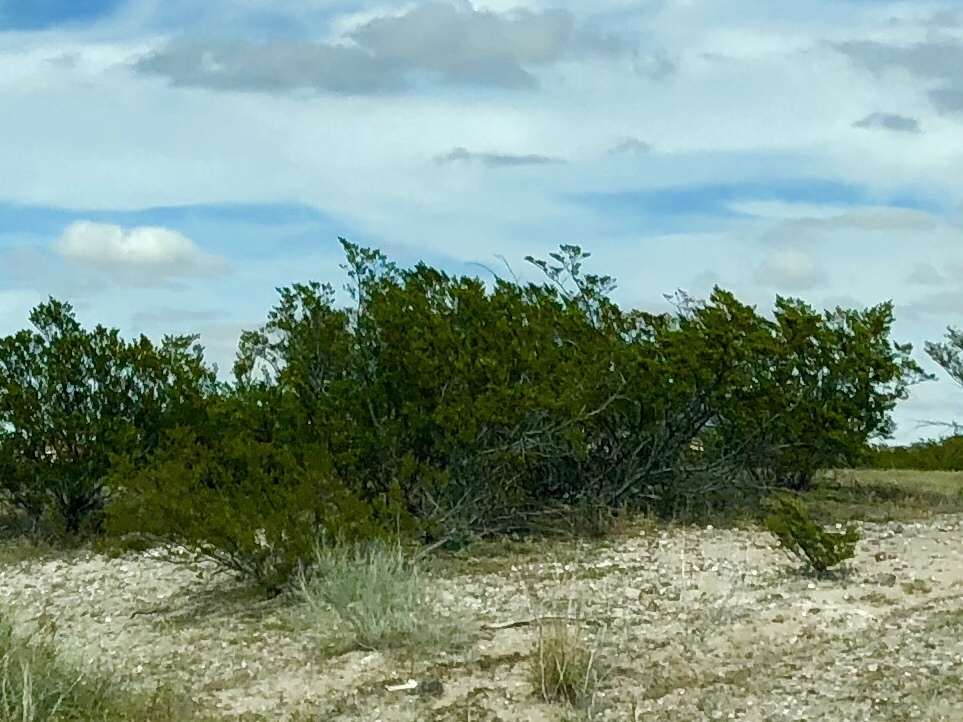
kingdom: Plantae
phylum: Tracheophyta
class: Magnoliopsida
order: Zygophyllales
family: Zygophyllaceae
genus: Larrea
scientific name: Larrea tridentata
